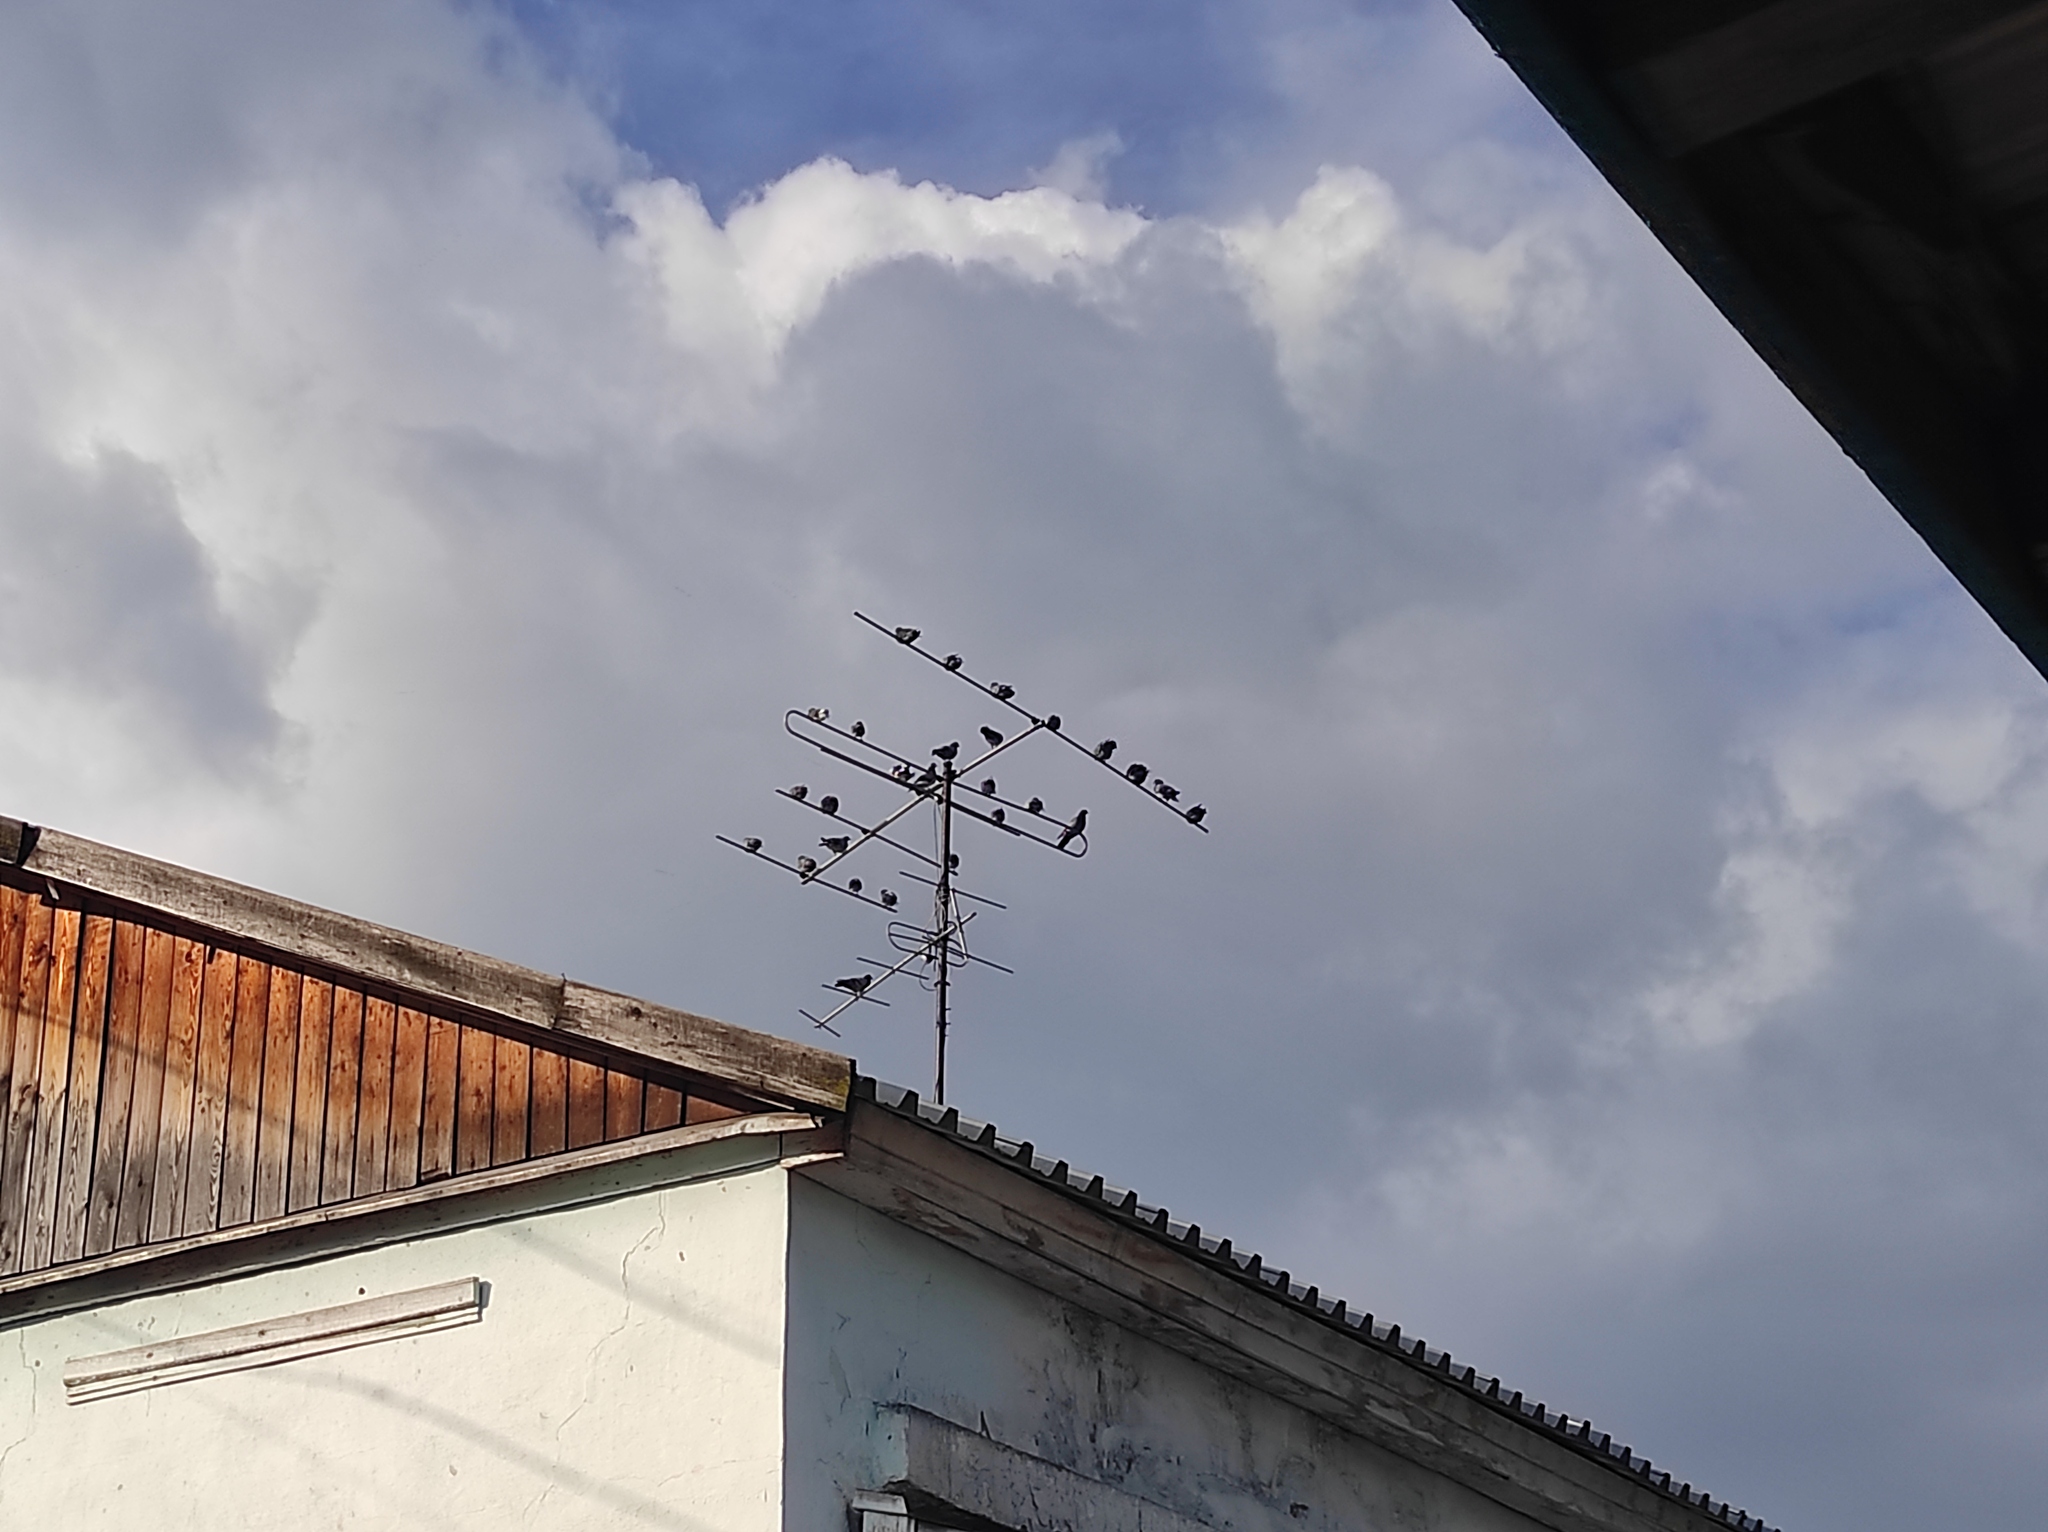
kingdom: Animalia
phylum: Chordata
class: Aves
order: Columbiformes
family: Columbidae
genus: Columba
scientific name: Columba livia
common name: Rock pigeon
